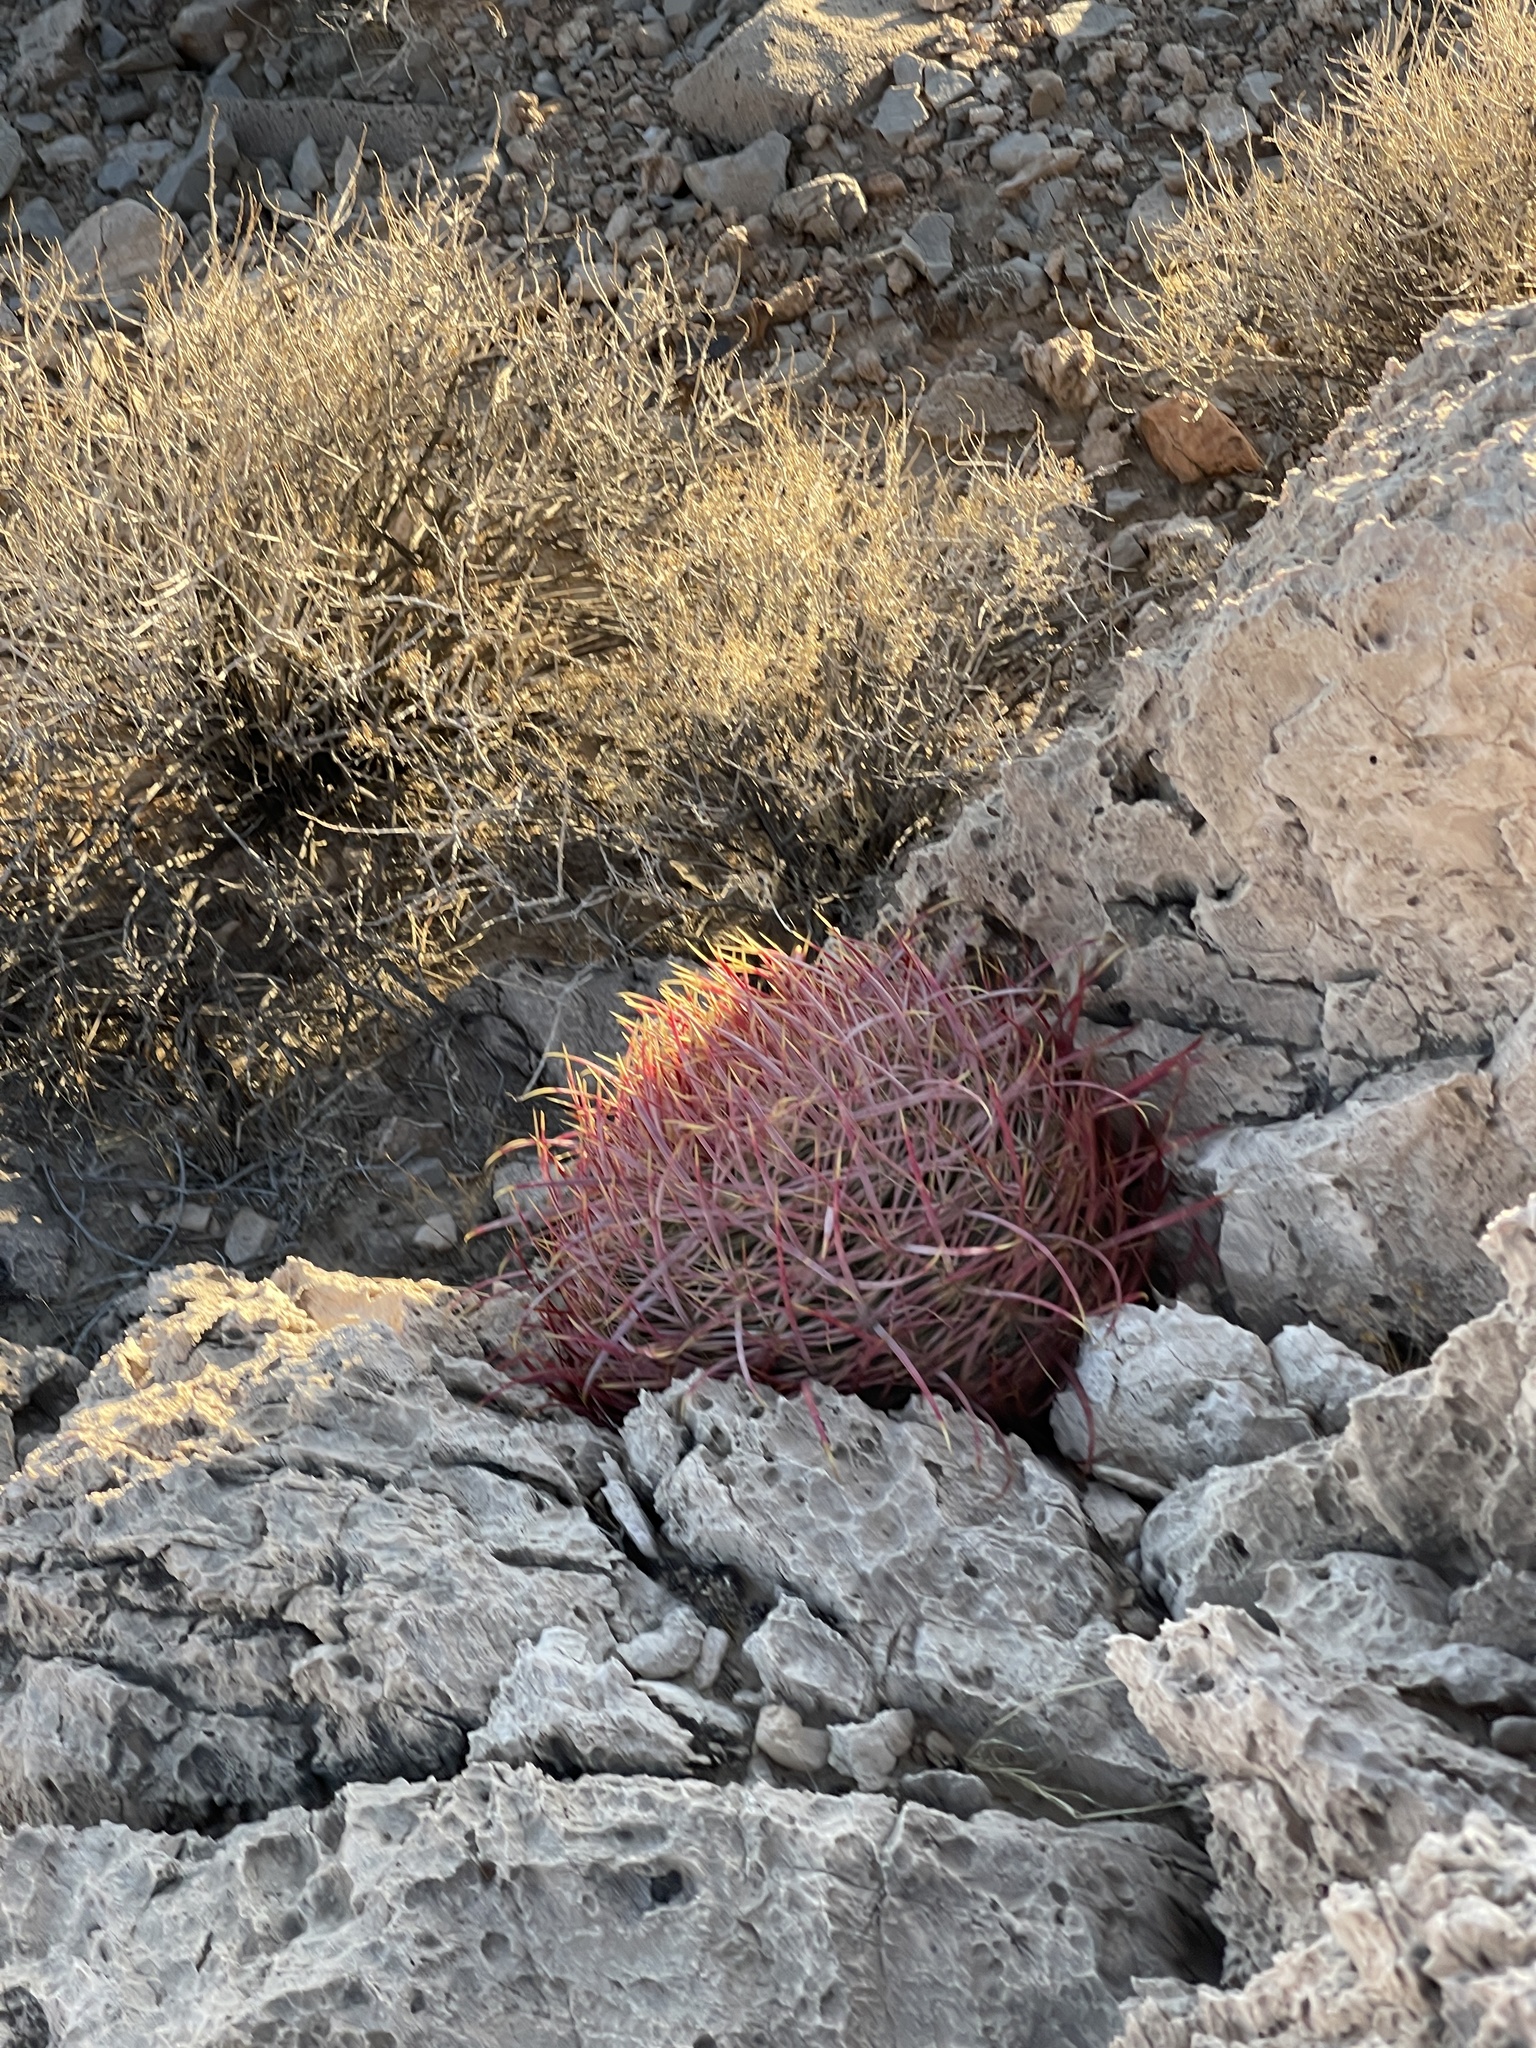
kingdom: Plantae
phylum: Tracheophyta
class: Magnoliopsida
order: Caryophyllales
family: Cactaceae
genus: Ferocactus
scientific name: Ferocactus cylindraceus
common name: California barrel cactus
